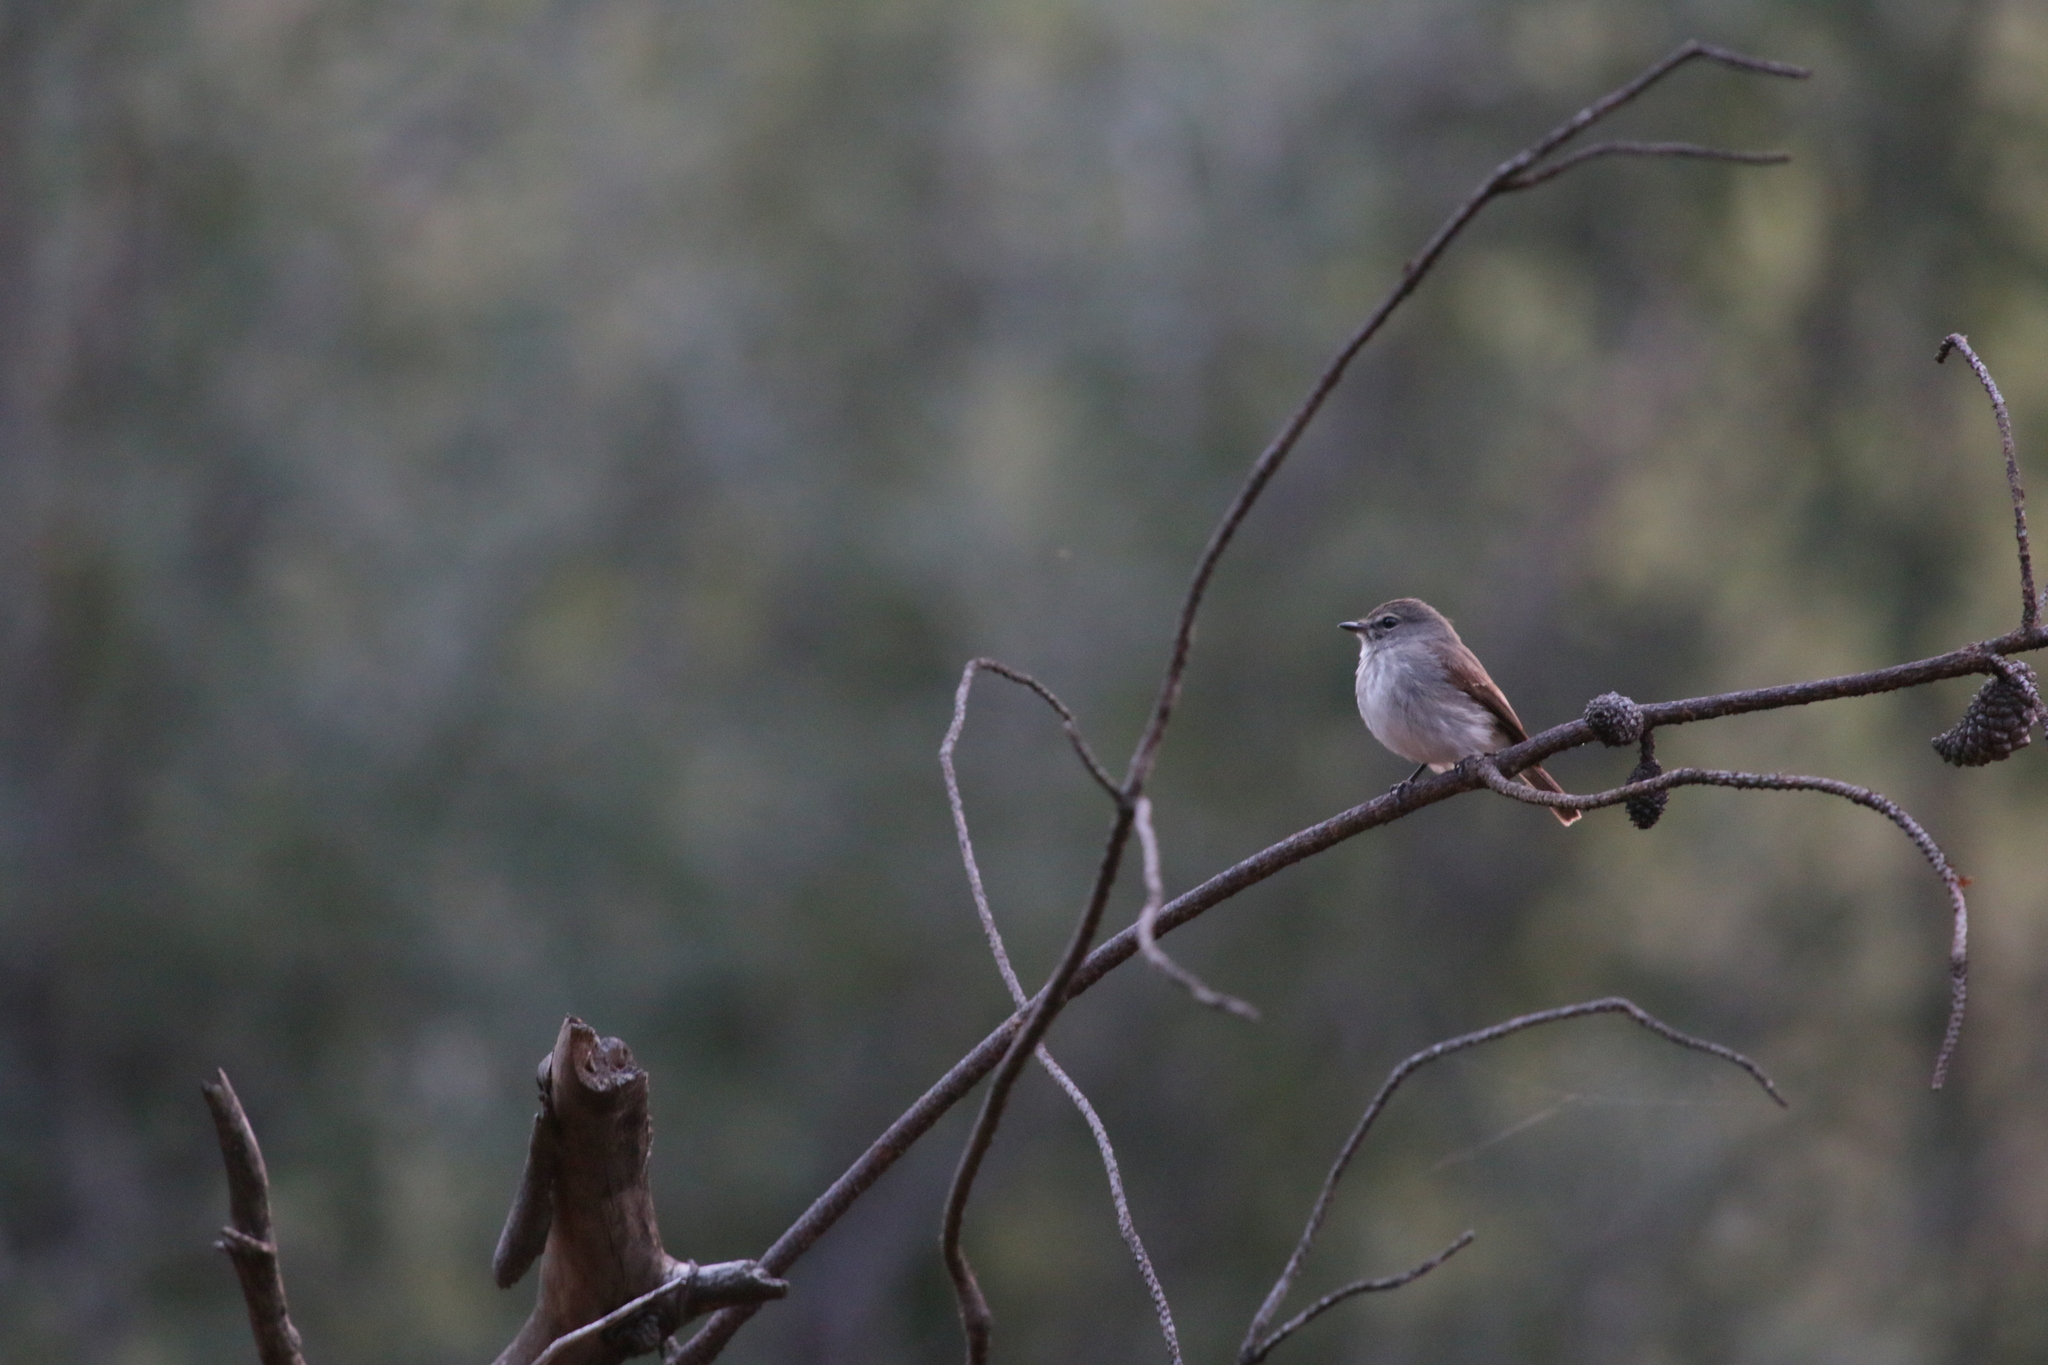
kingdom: Animalia
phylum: Chordata
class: Aves
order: Passeriformes
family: Muscicapidae
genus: Muscicapa
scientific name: Muscicapa adusta
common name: African dusky flycatcher
